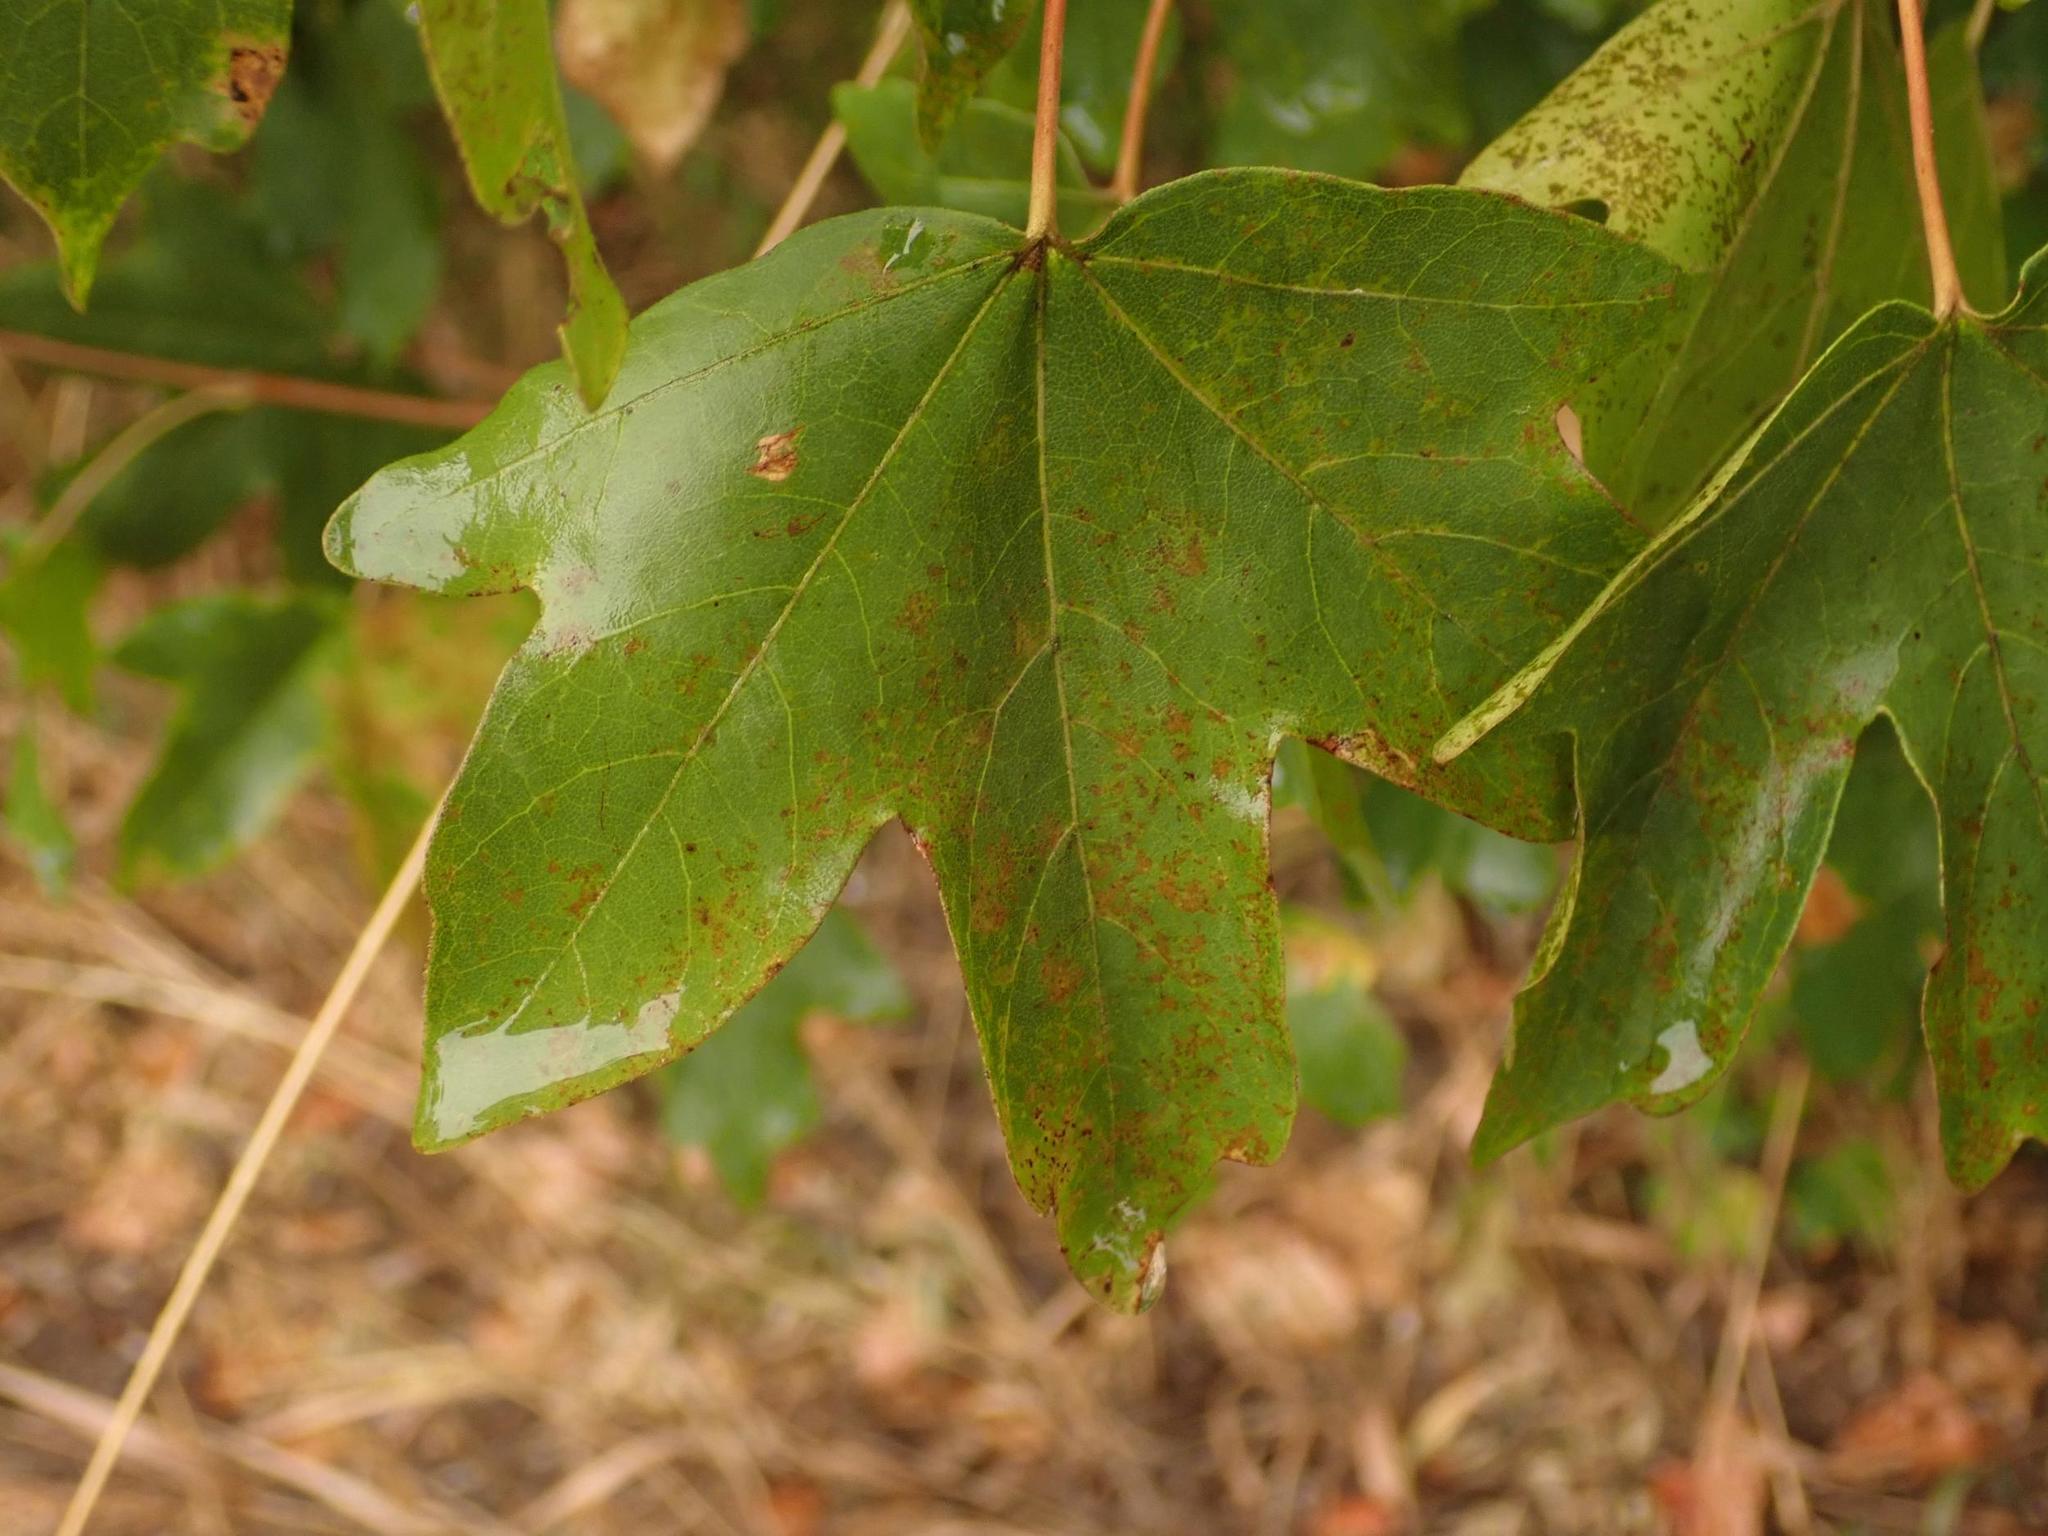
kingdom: Plantae
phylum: Tracheophyta
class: Magnoliopsida
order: Sapindales
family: Sapindaceae
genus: Acer
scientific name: Acer campestre
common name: Field maple
